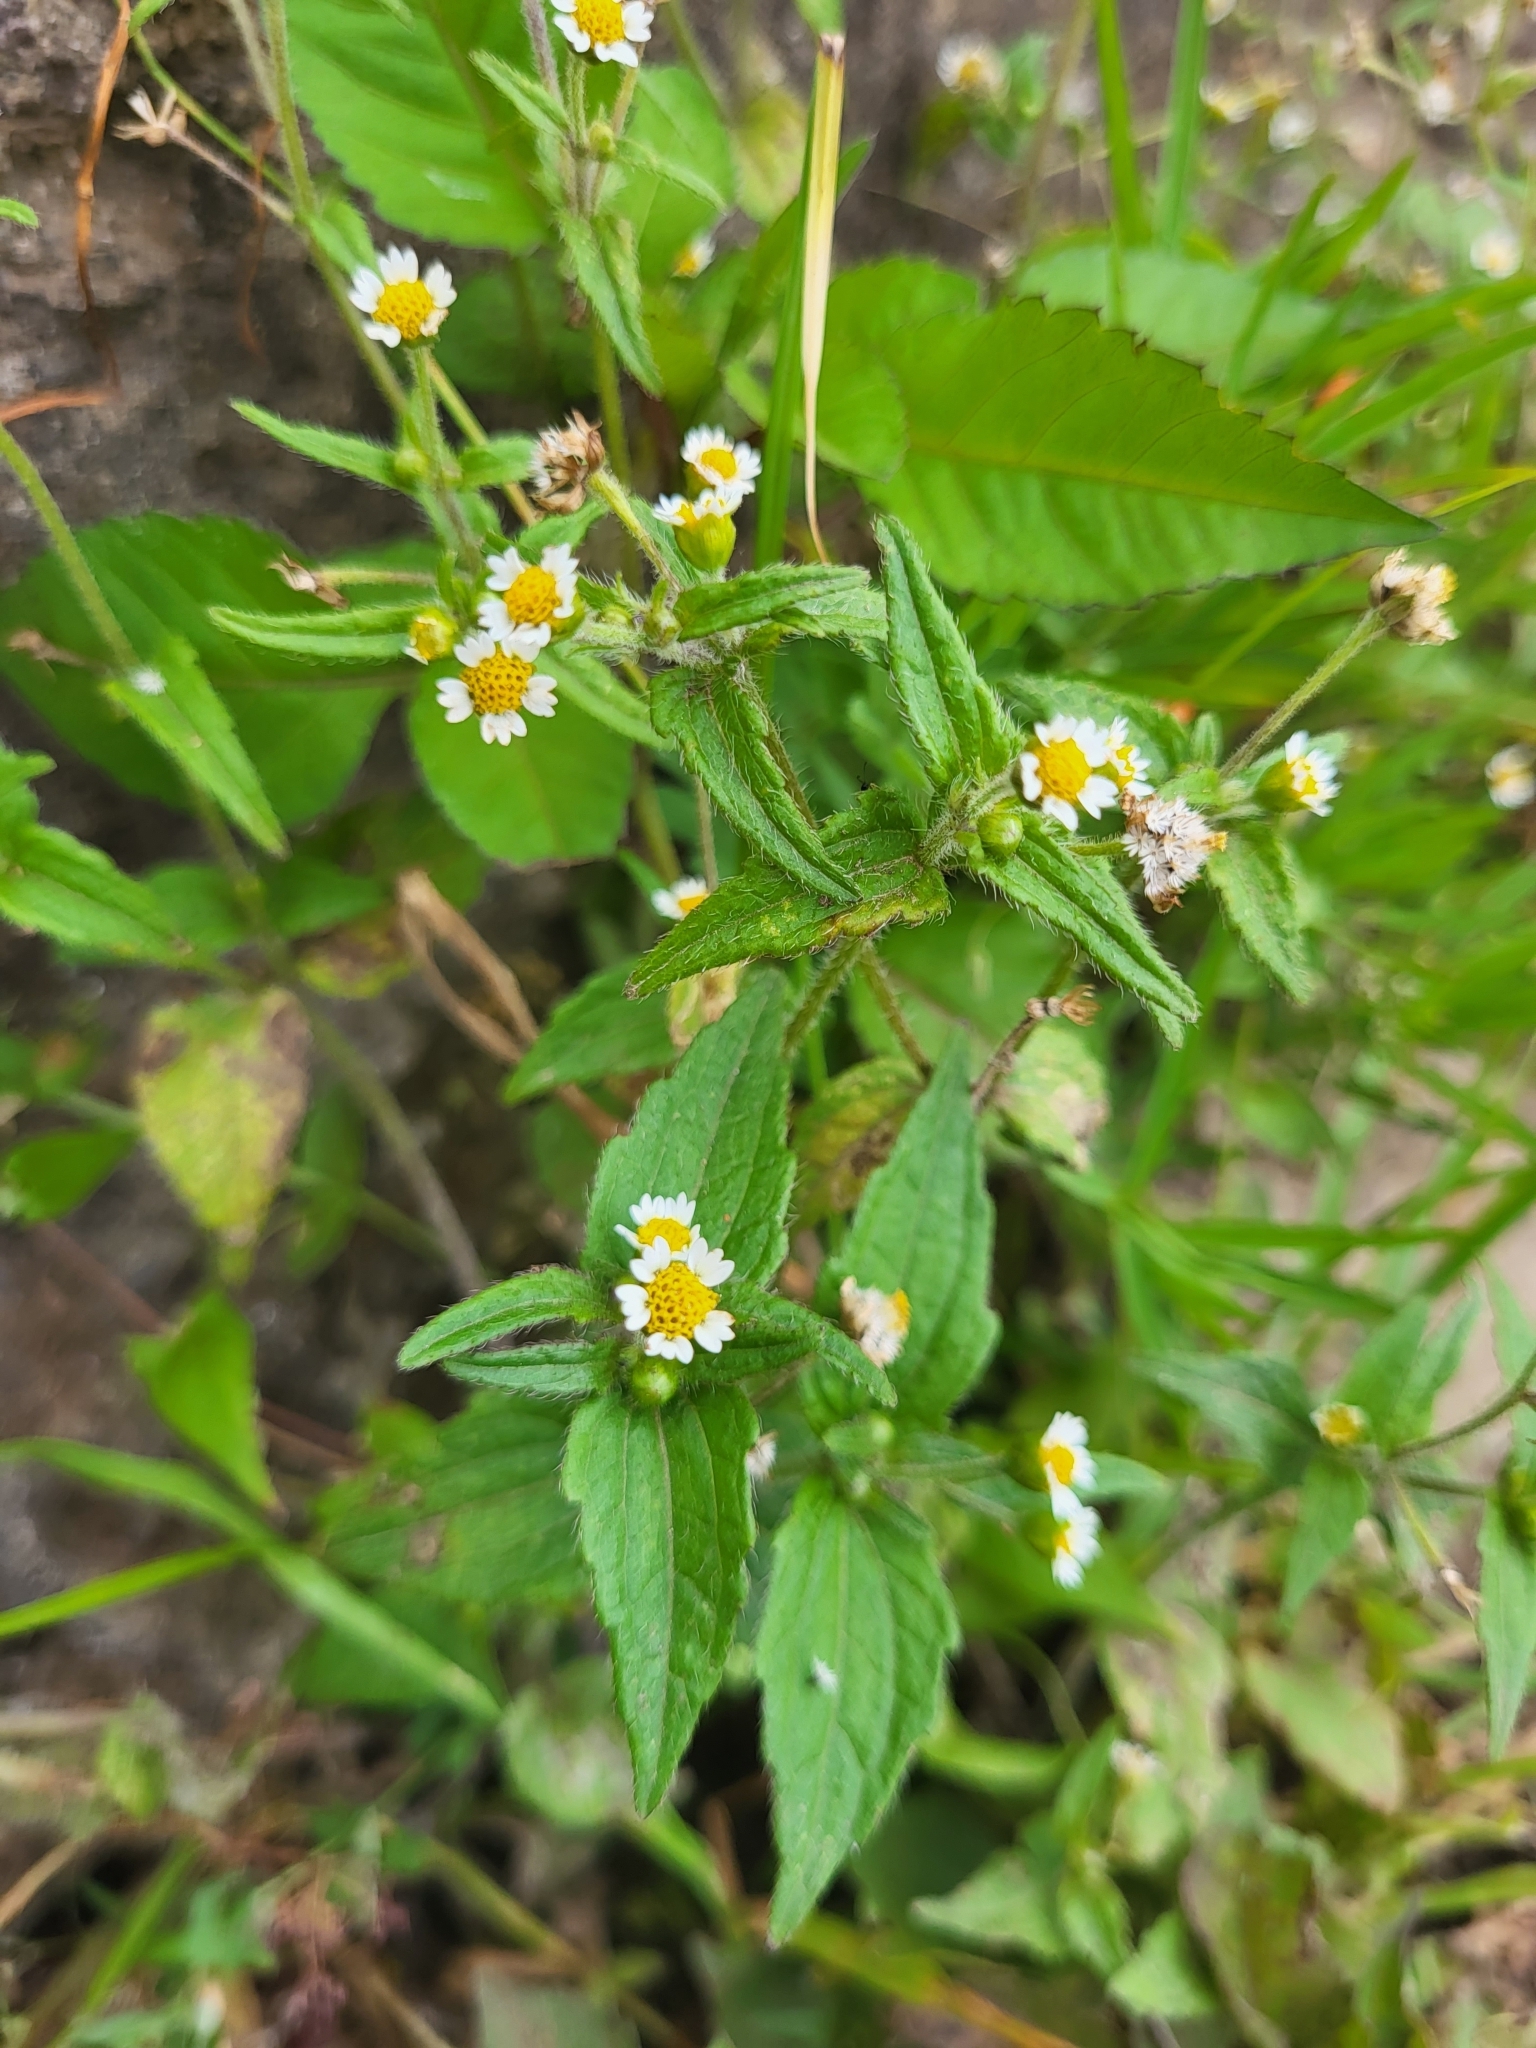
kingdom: Plantae
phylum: Tracheophyta
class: Magnoliopsida
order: Asterales
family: Asteraceae
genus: Galinsoga
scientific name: Galinsoga quadriradiata
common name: Shaggy soldier
